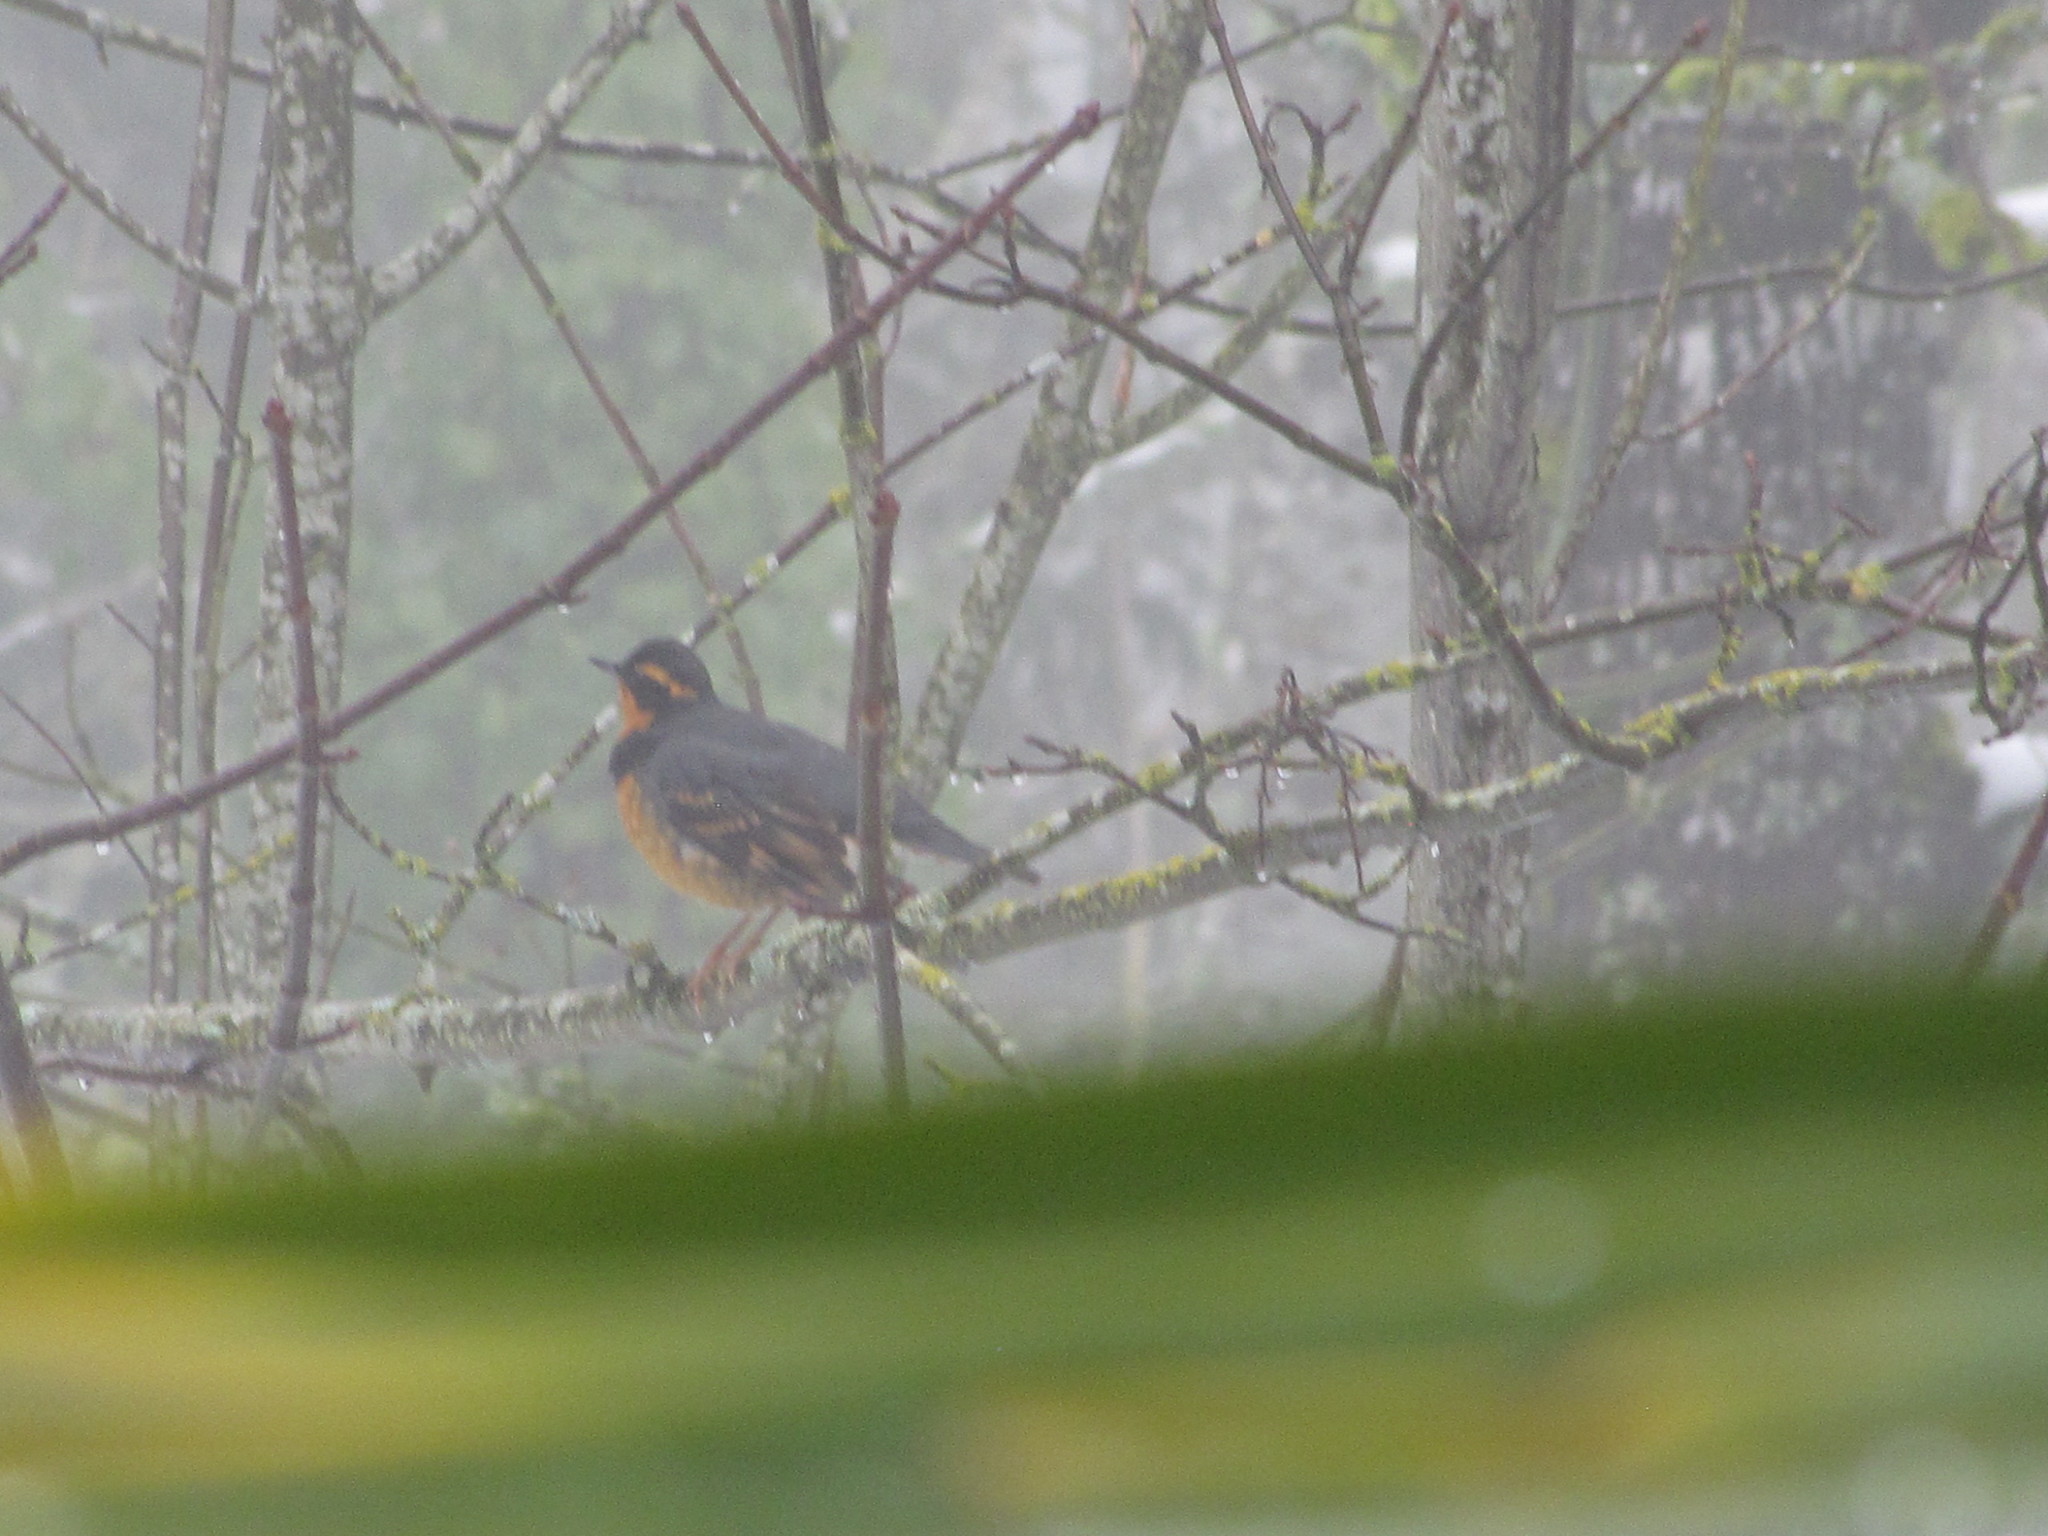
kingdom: Animalia
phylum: Chordata
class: Aves
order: Passeriformes
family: Turdidae
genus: Ixoreus
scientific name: Ixoreus naevius
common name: Varied thrush
